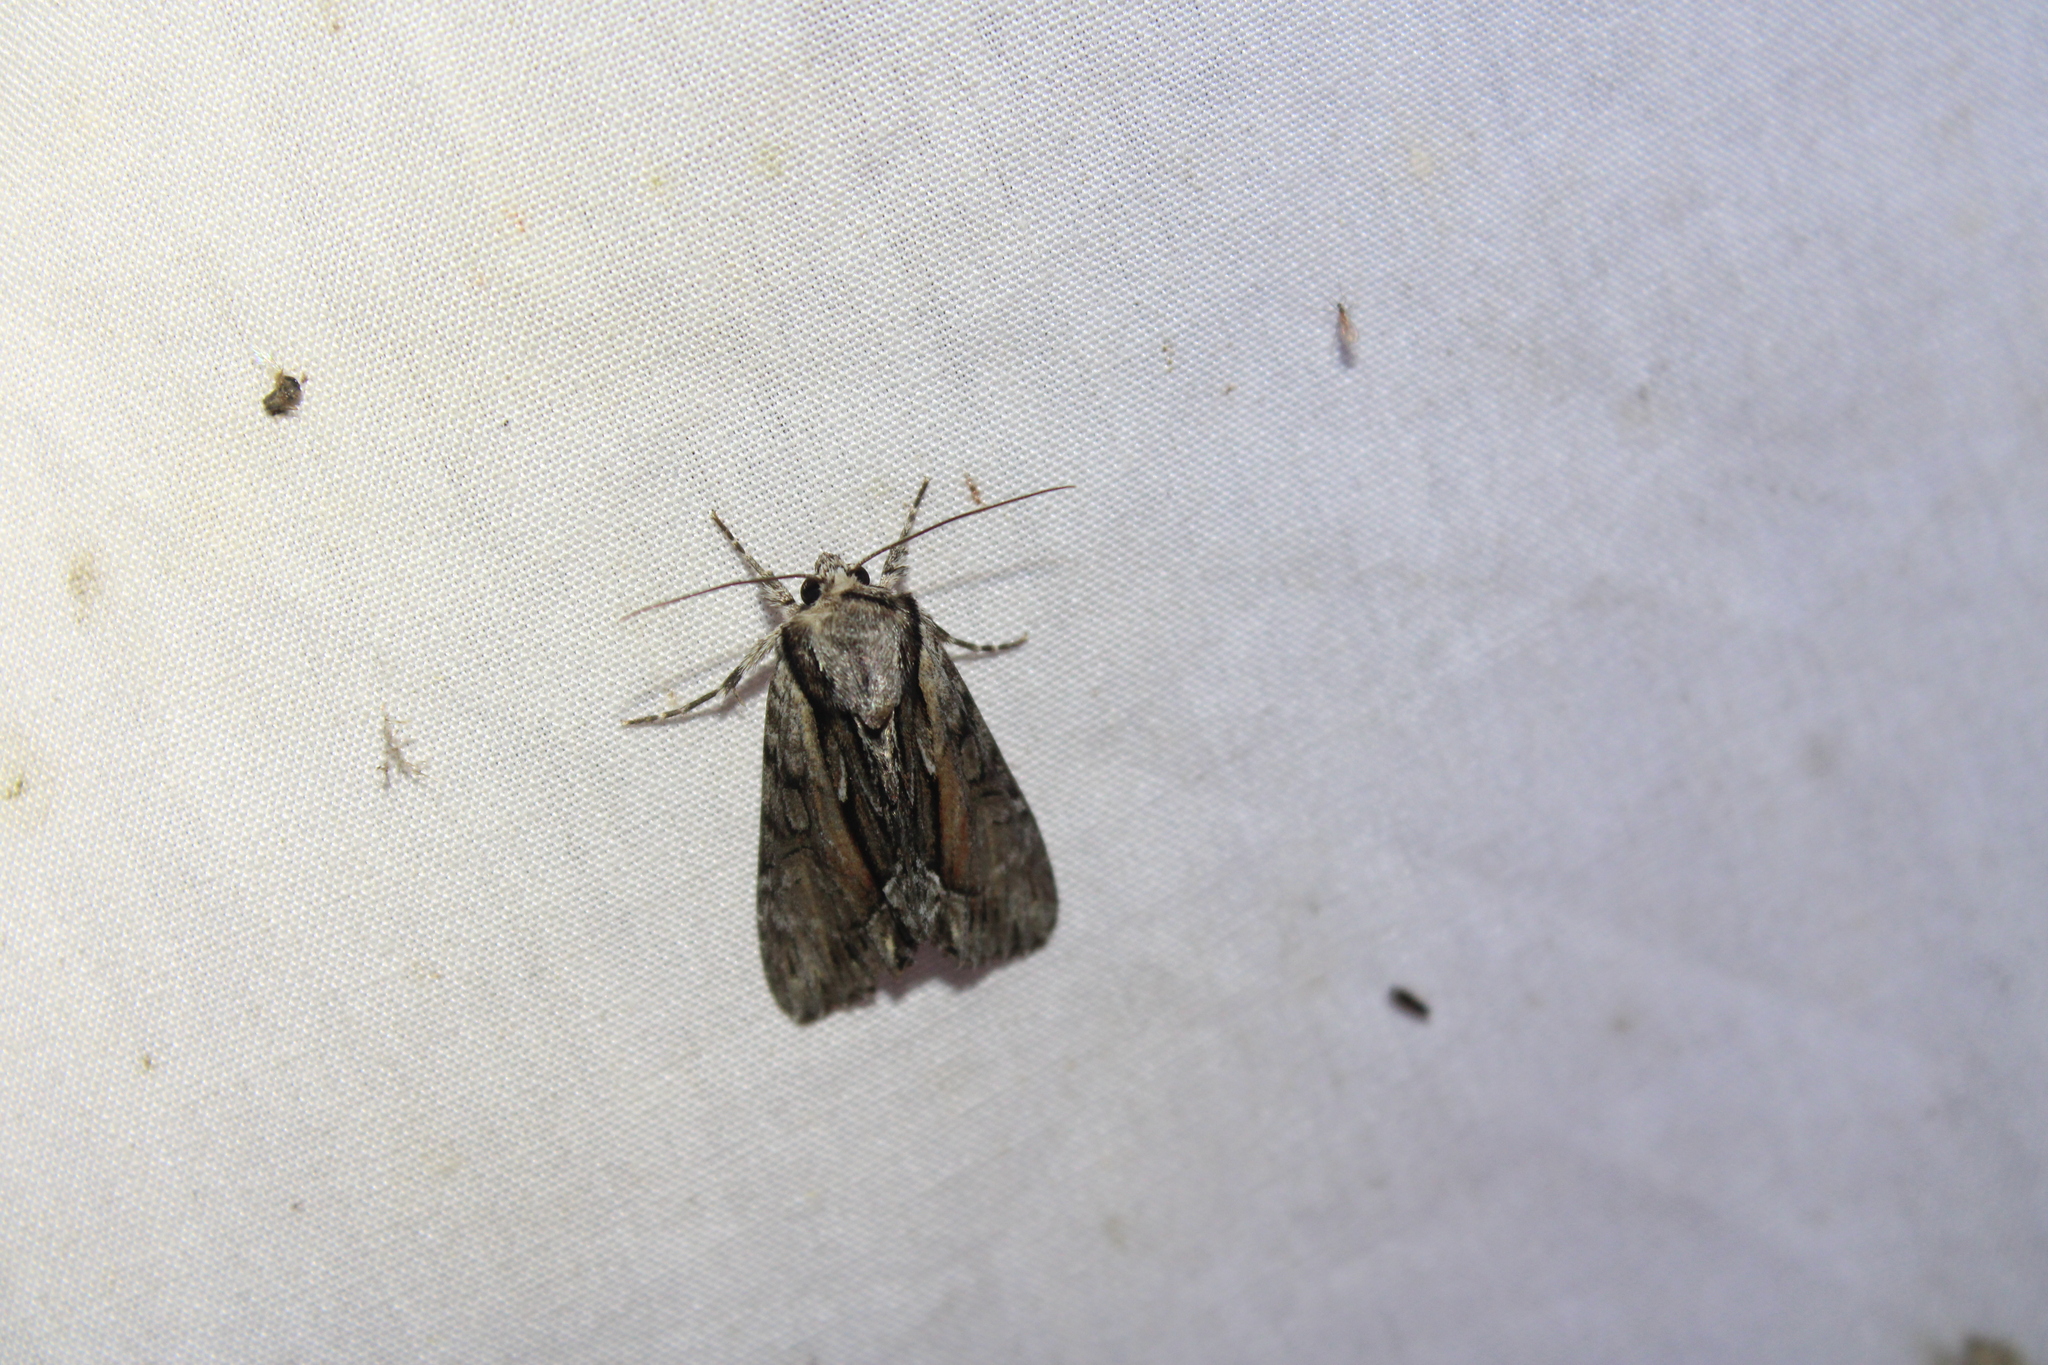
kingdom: Animalia
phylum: Arthropoda
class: Insecta
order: Lepidoptera
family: Noctuidae
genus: Hyppa
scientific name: Hyppa xylinoides
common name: Common hyppa moth
